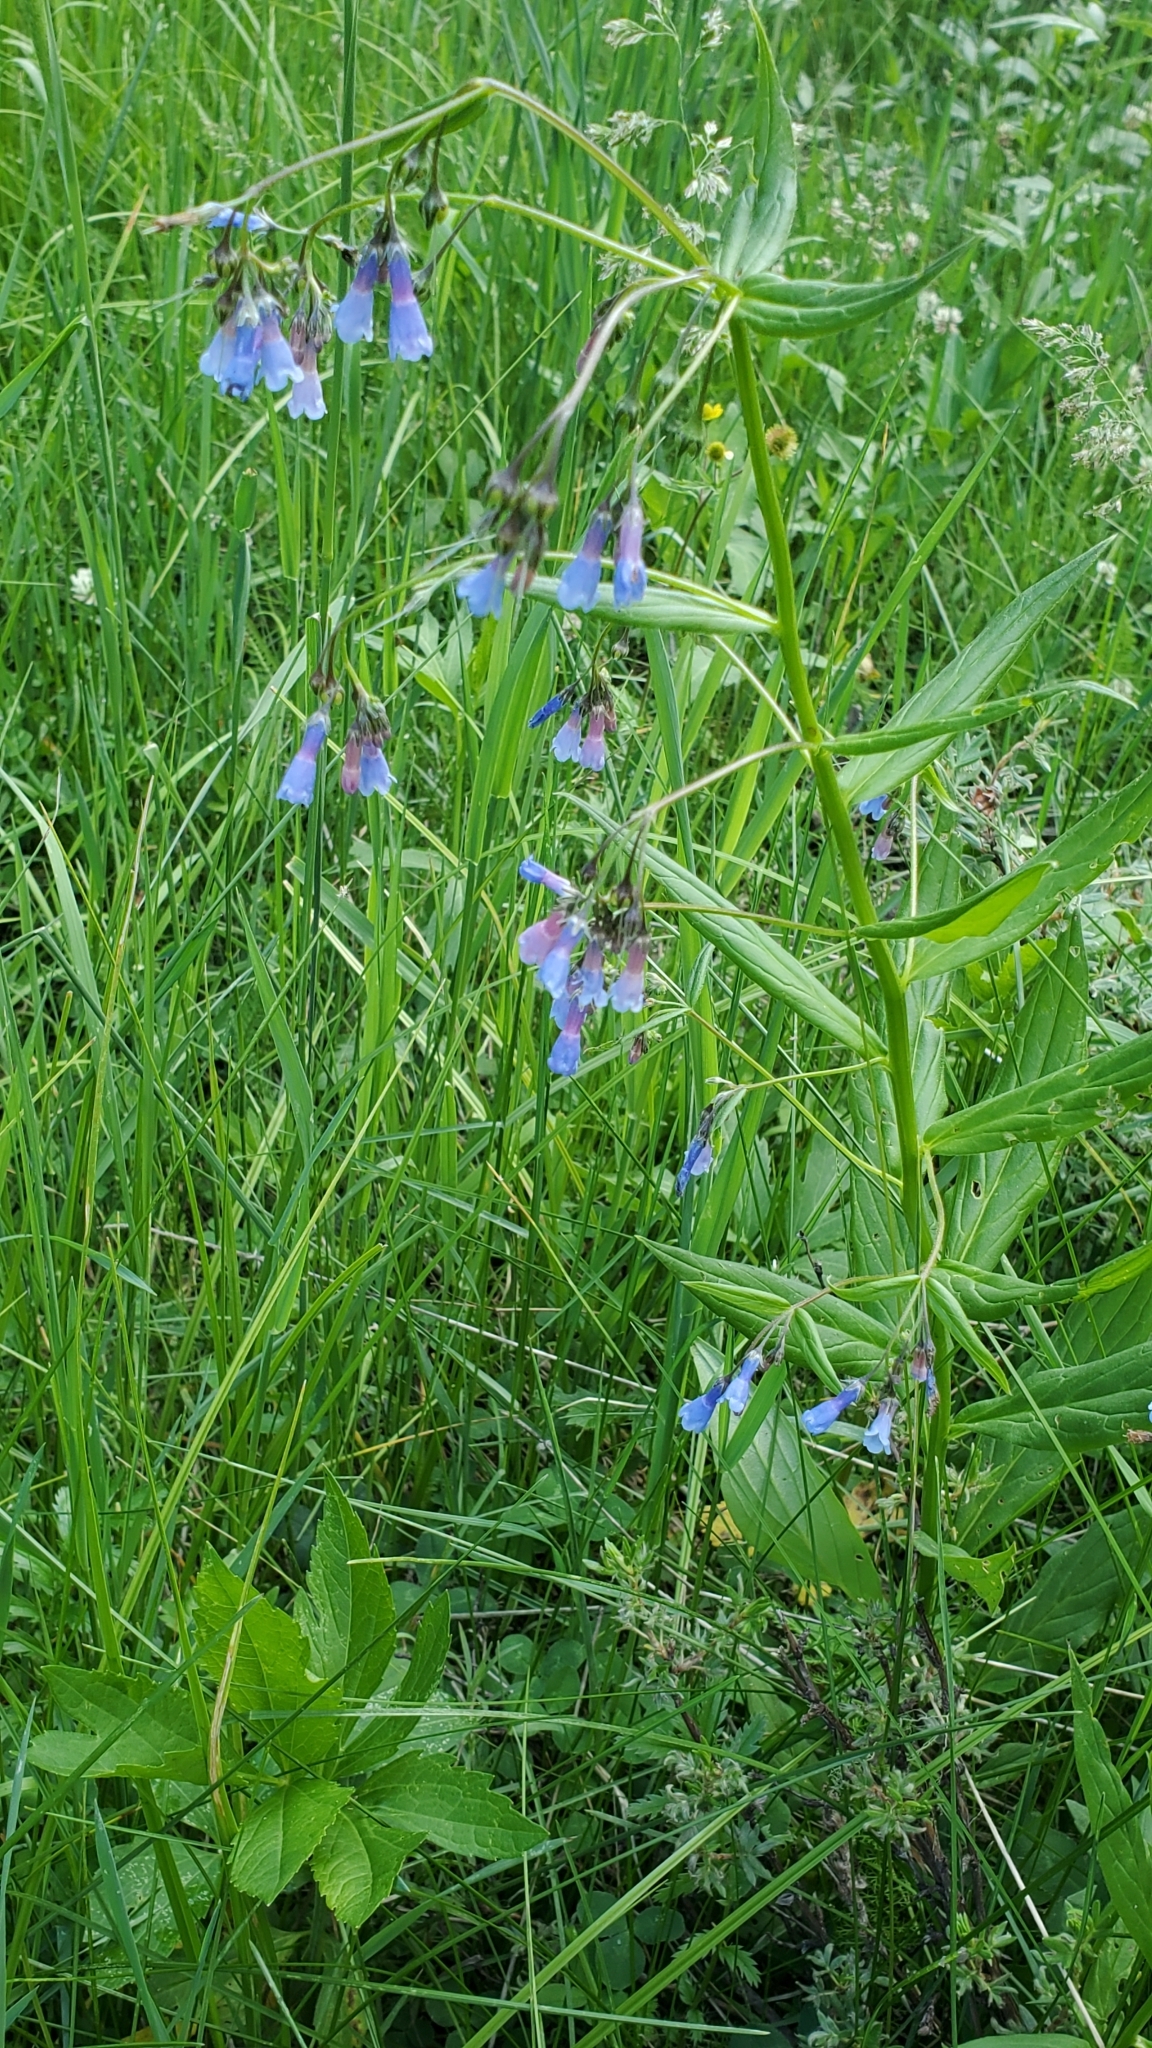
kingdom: Plantae
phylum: Tracheophyta
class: Magnoliopsida
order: Boraginales
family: Boraginaceae
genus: Mertensia
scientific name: Mertensia franciscana
